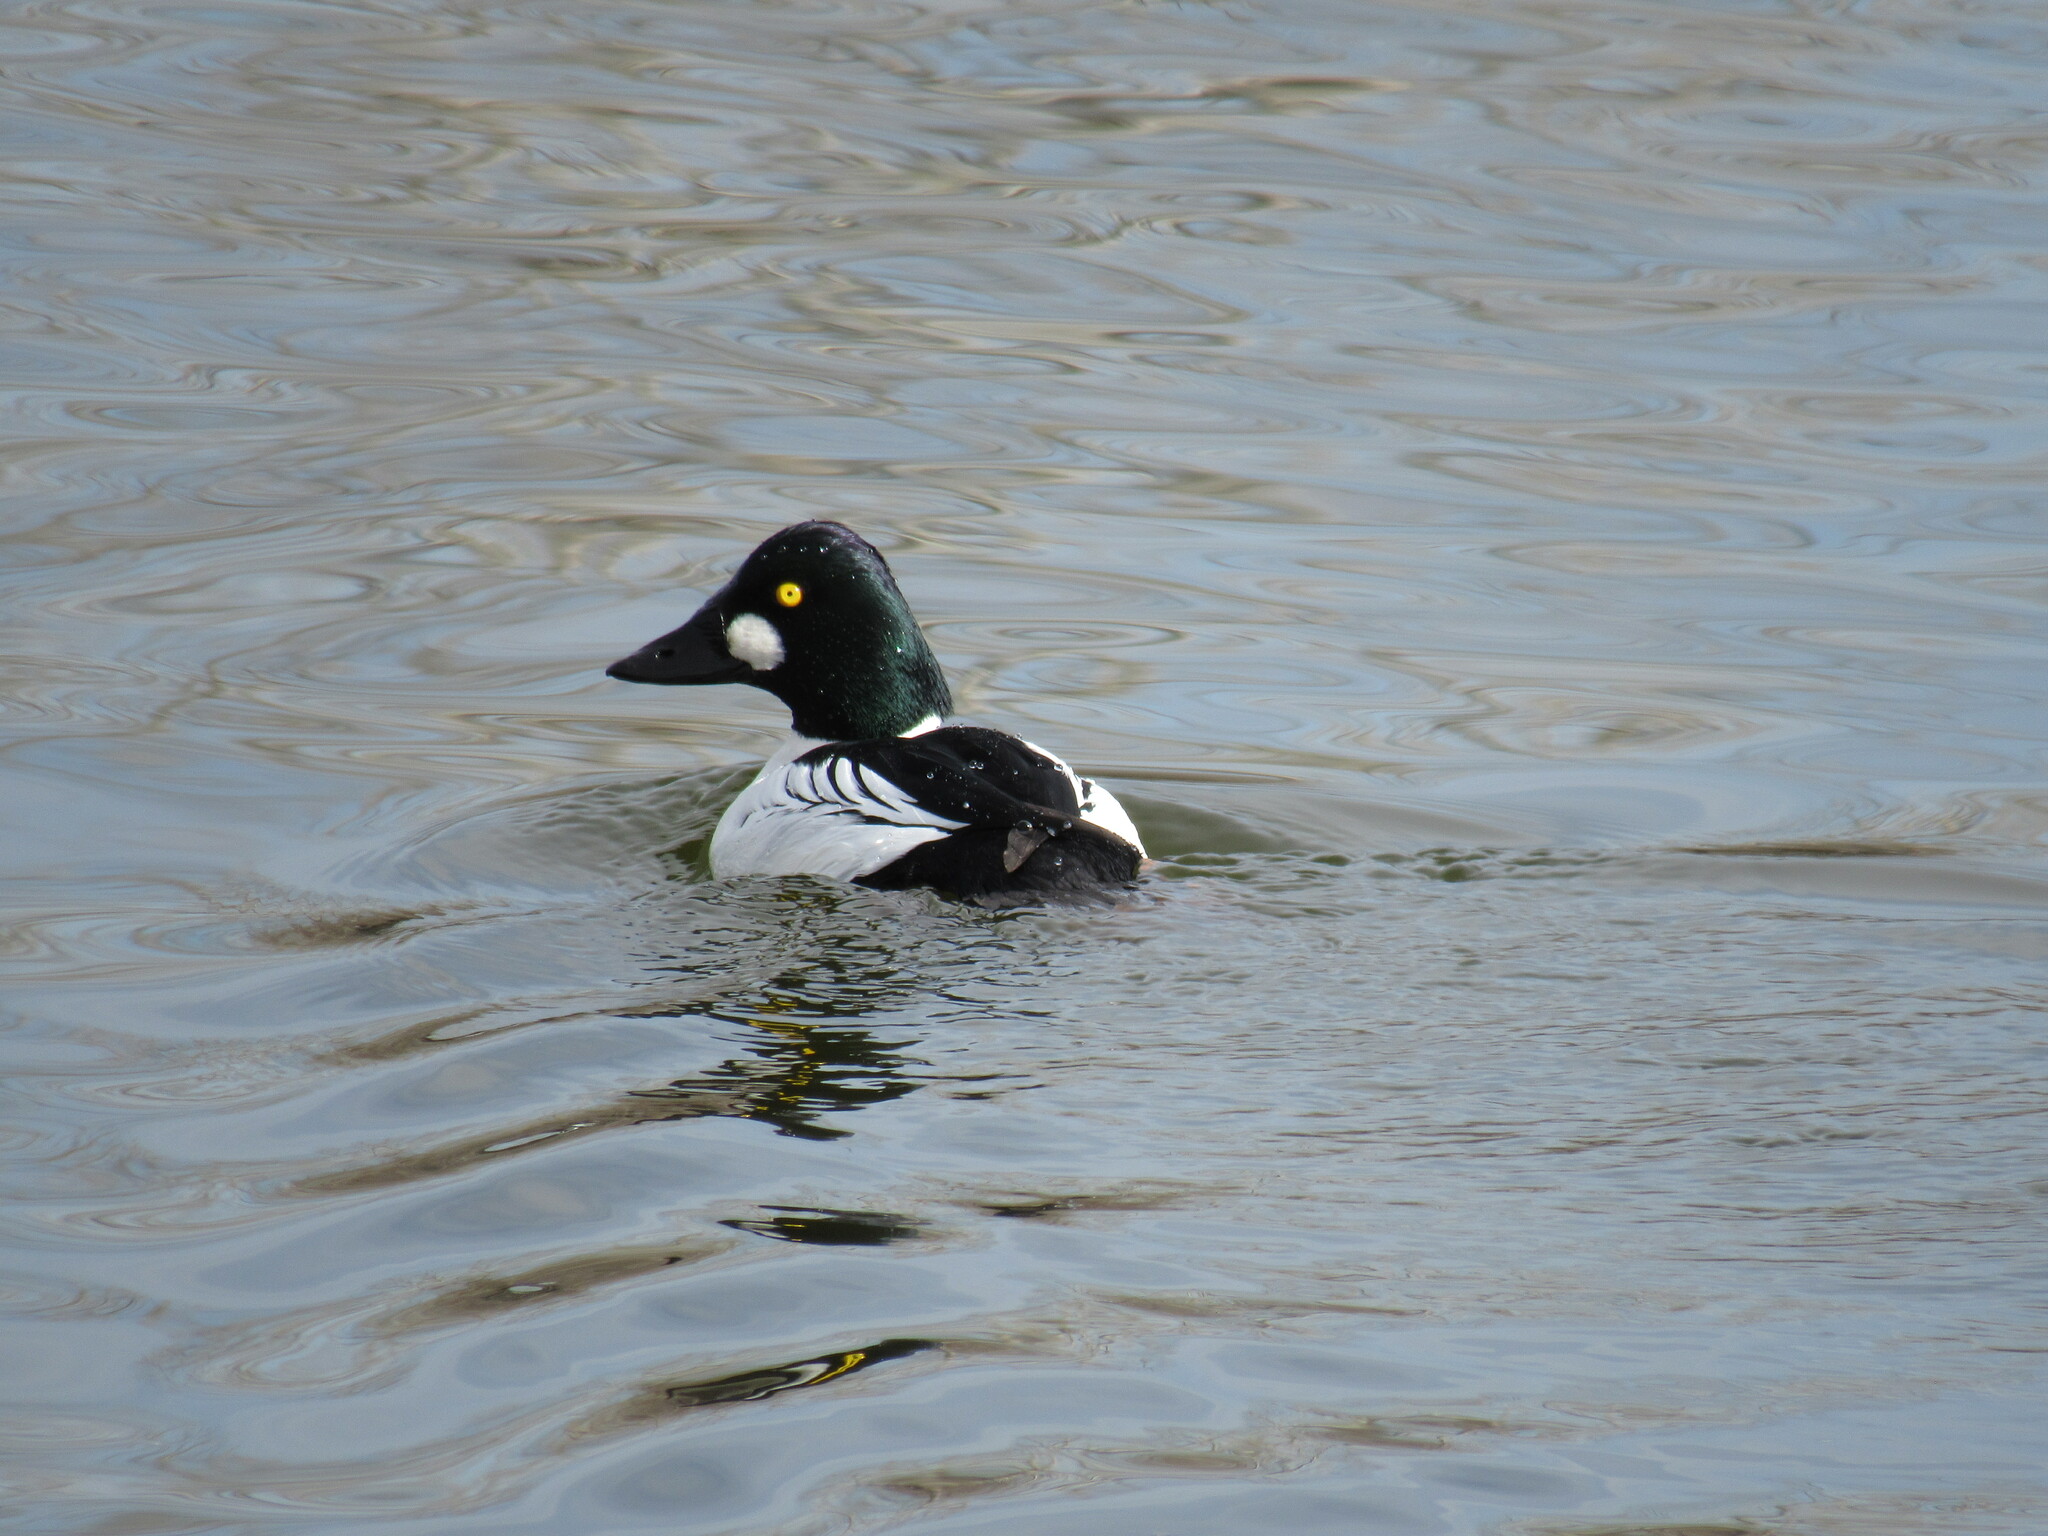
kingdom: Animalia
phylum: Chordata
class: Aves
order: Anseriformes
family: Anatidae
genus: Bucephala
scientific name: Bucephala clangula
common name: Common goldeneye
